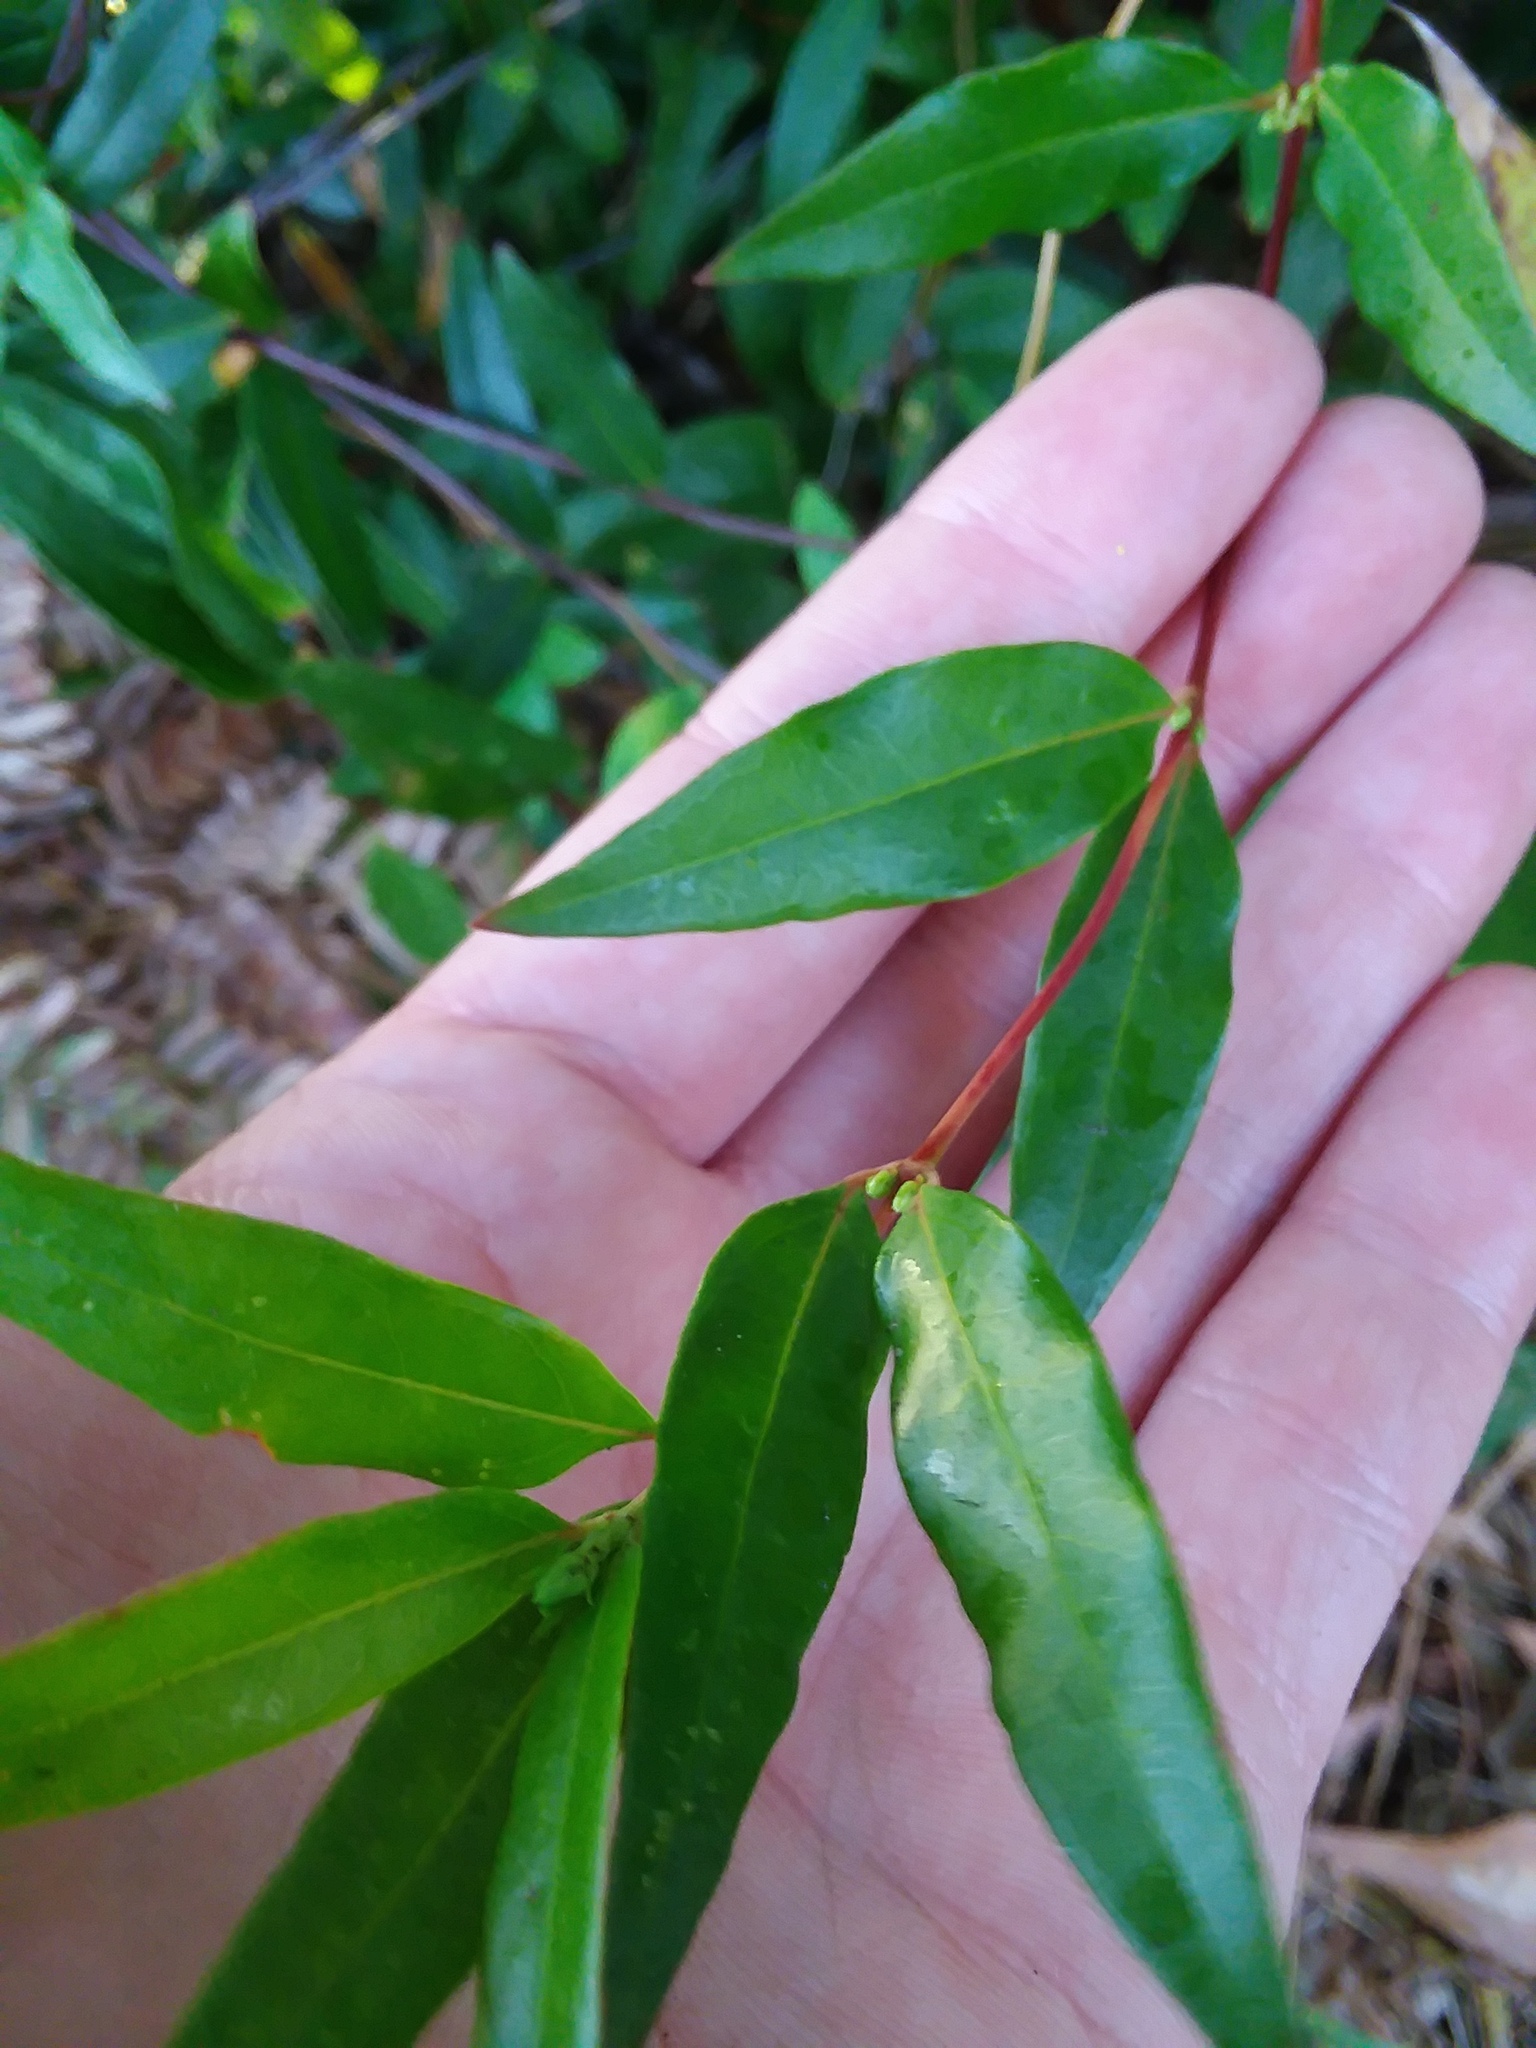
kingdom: Plantae
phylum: Tracheophyta
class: Magnoliopsida
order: Gentianales
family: Gelsemiaceae
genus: Gelsemium
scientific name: Gelsemium sempervirens
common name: Carolina-jasmine
